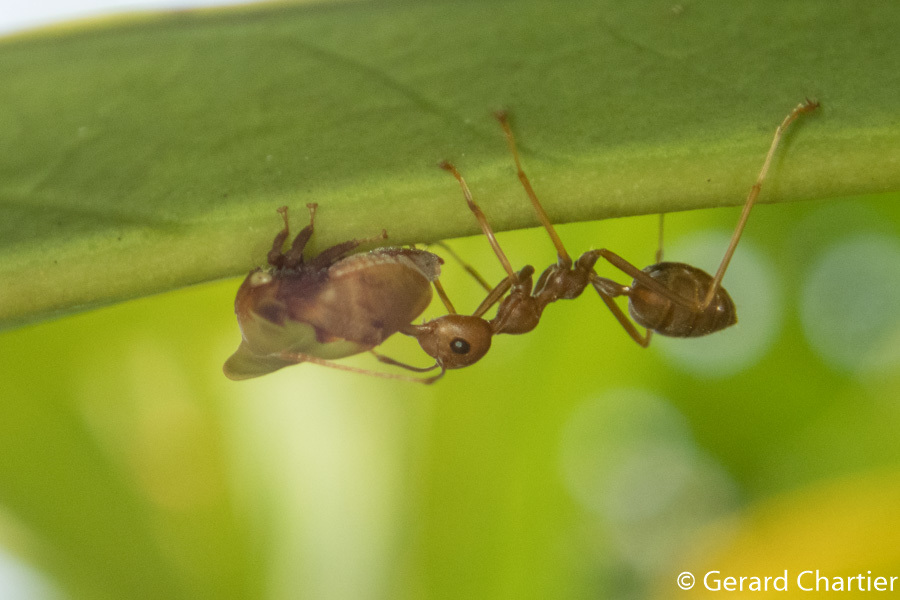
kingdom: Animalia
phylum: Arthropoda
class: Insecta
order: Hymenoptera
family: Formicidae
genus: Oecophylla
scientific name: Oecophylla smaragdina
